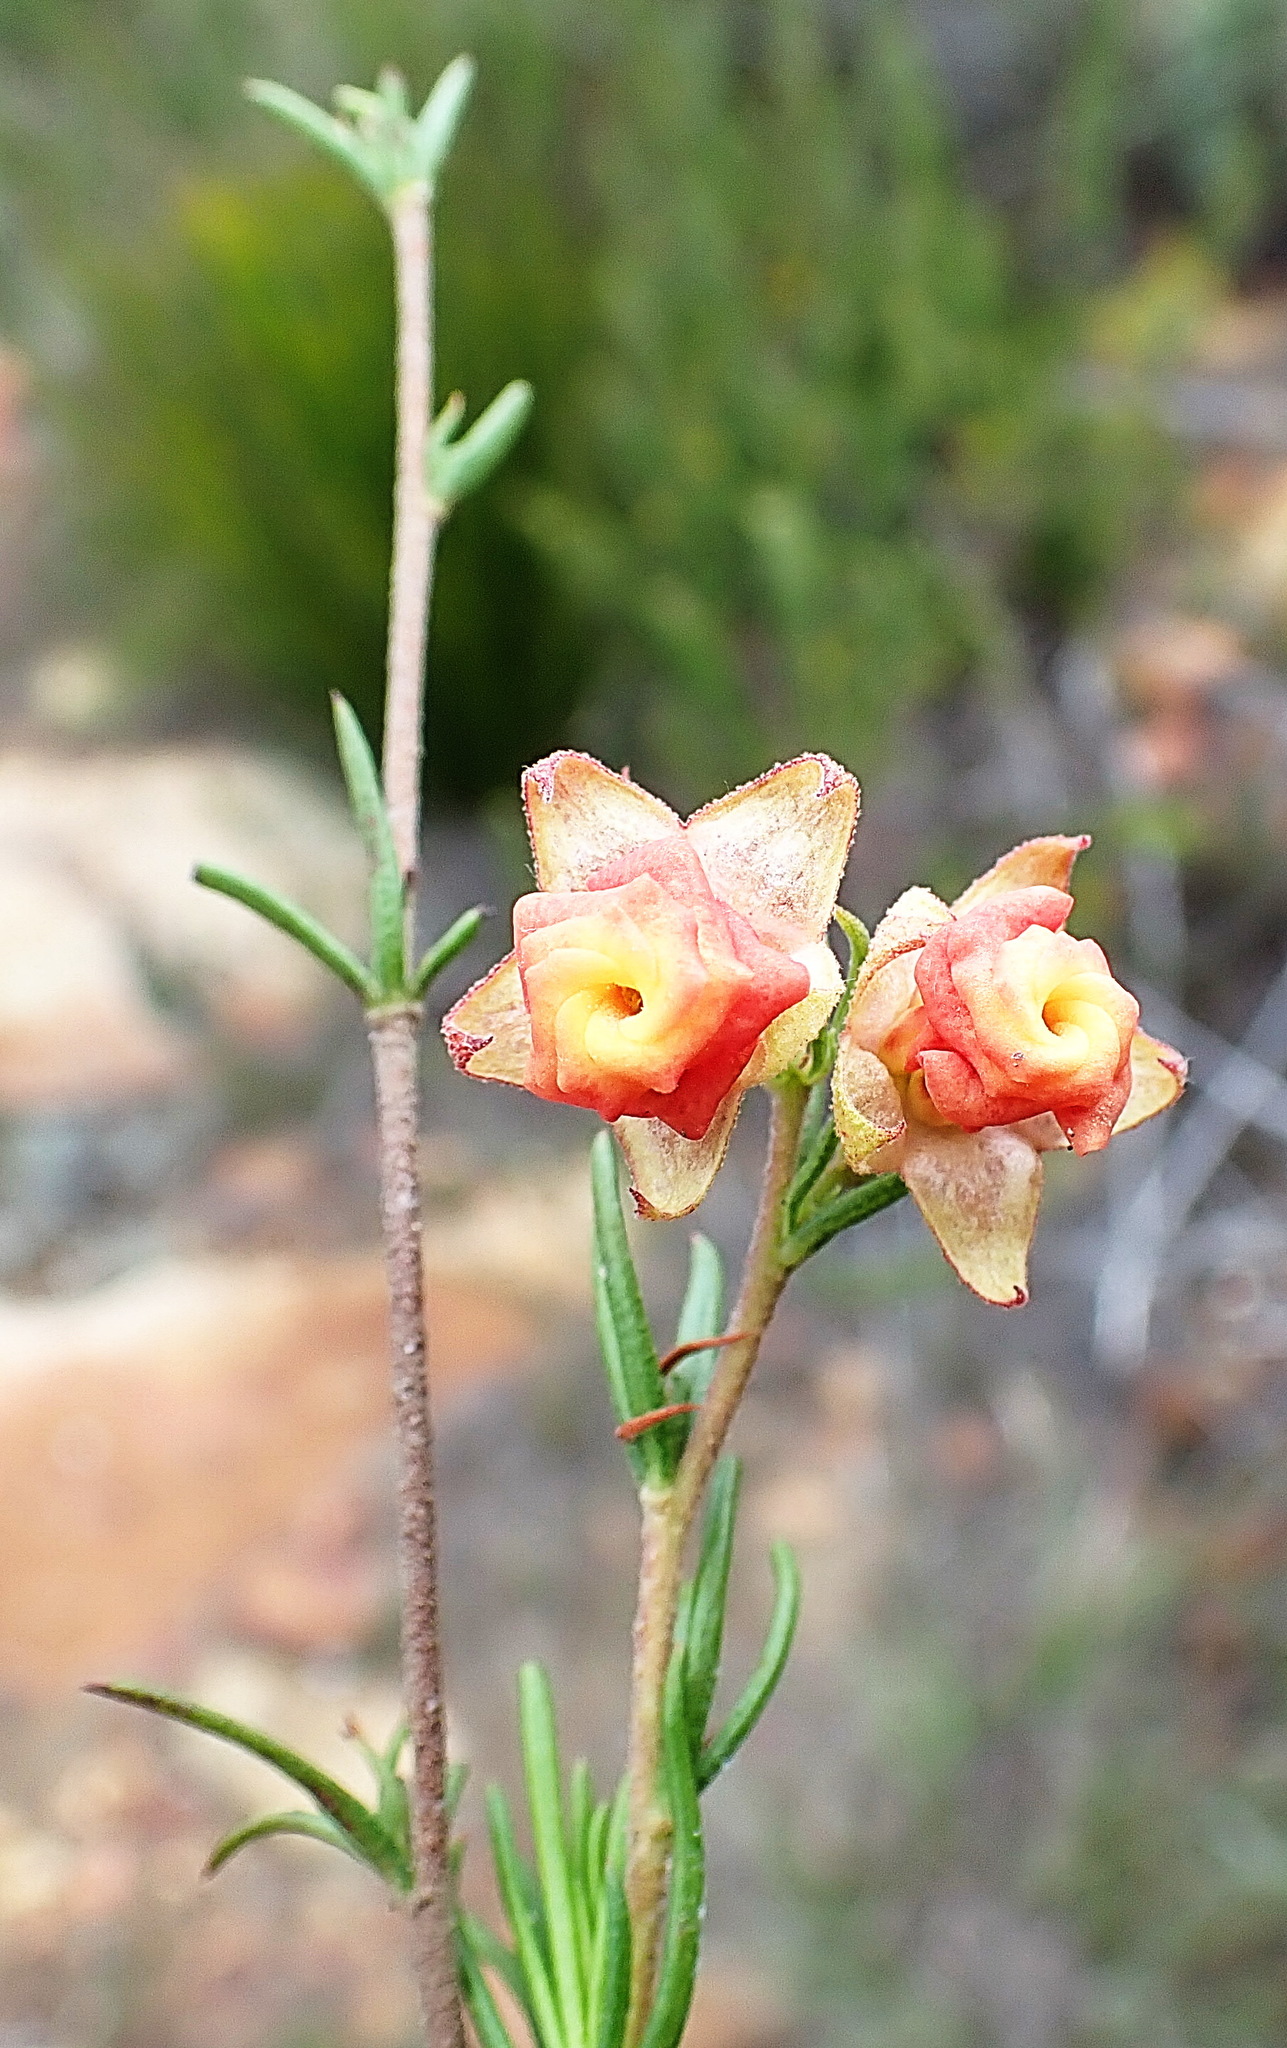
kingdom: Plantae
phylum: Tracheophyta
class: Magnoliopsida
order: Malvales
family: Malvaceae
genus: Hermannia
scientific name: Hermannia filifolia
